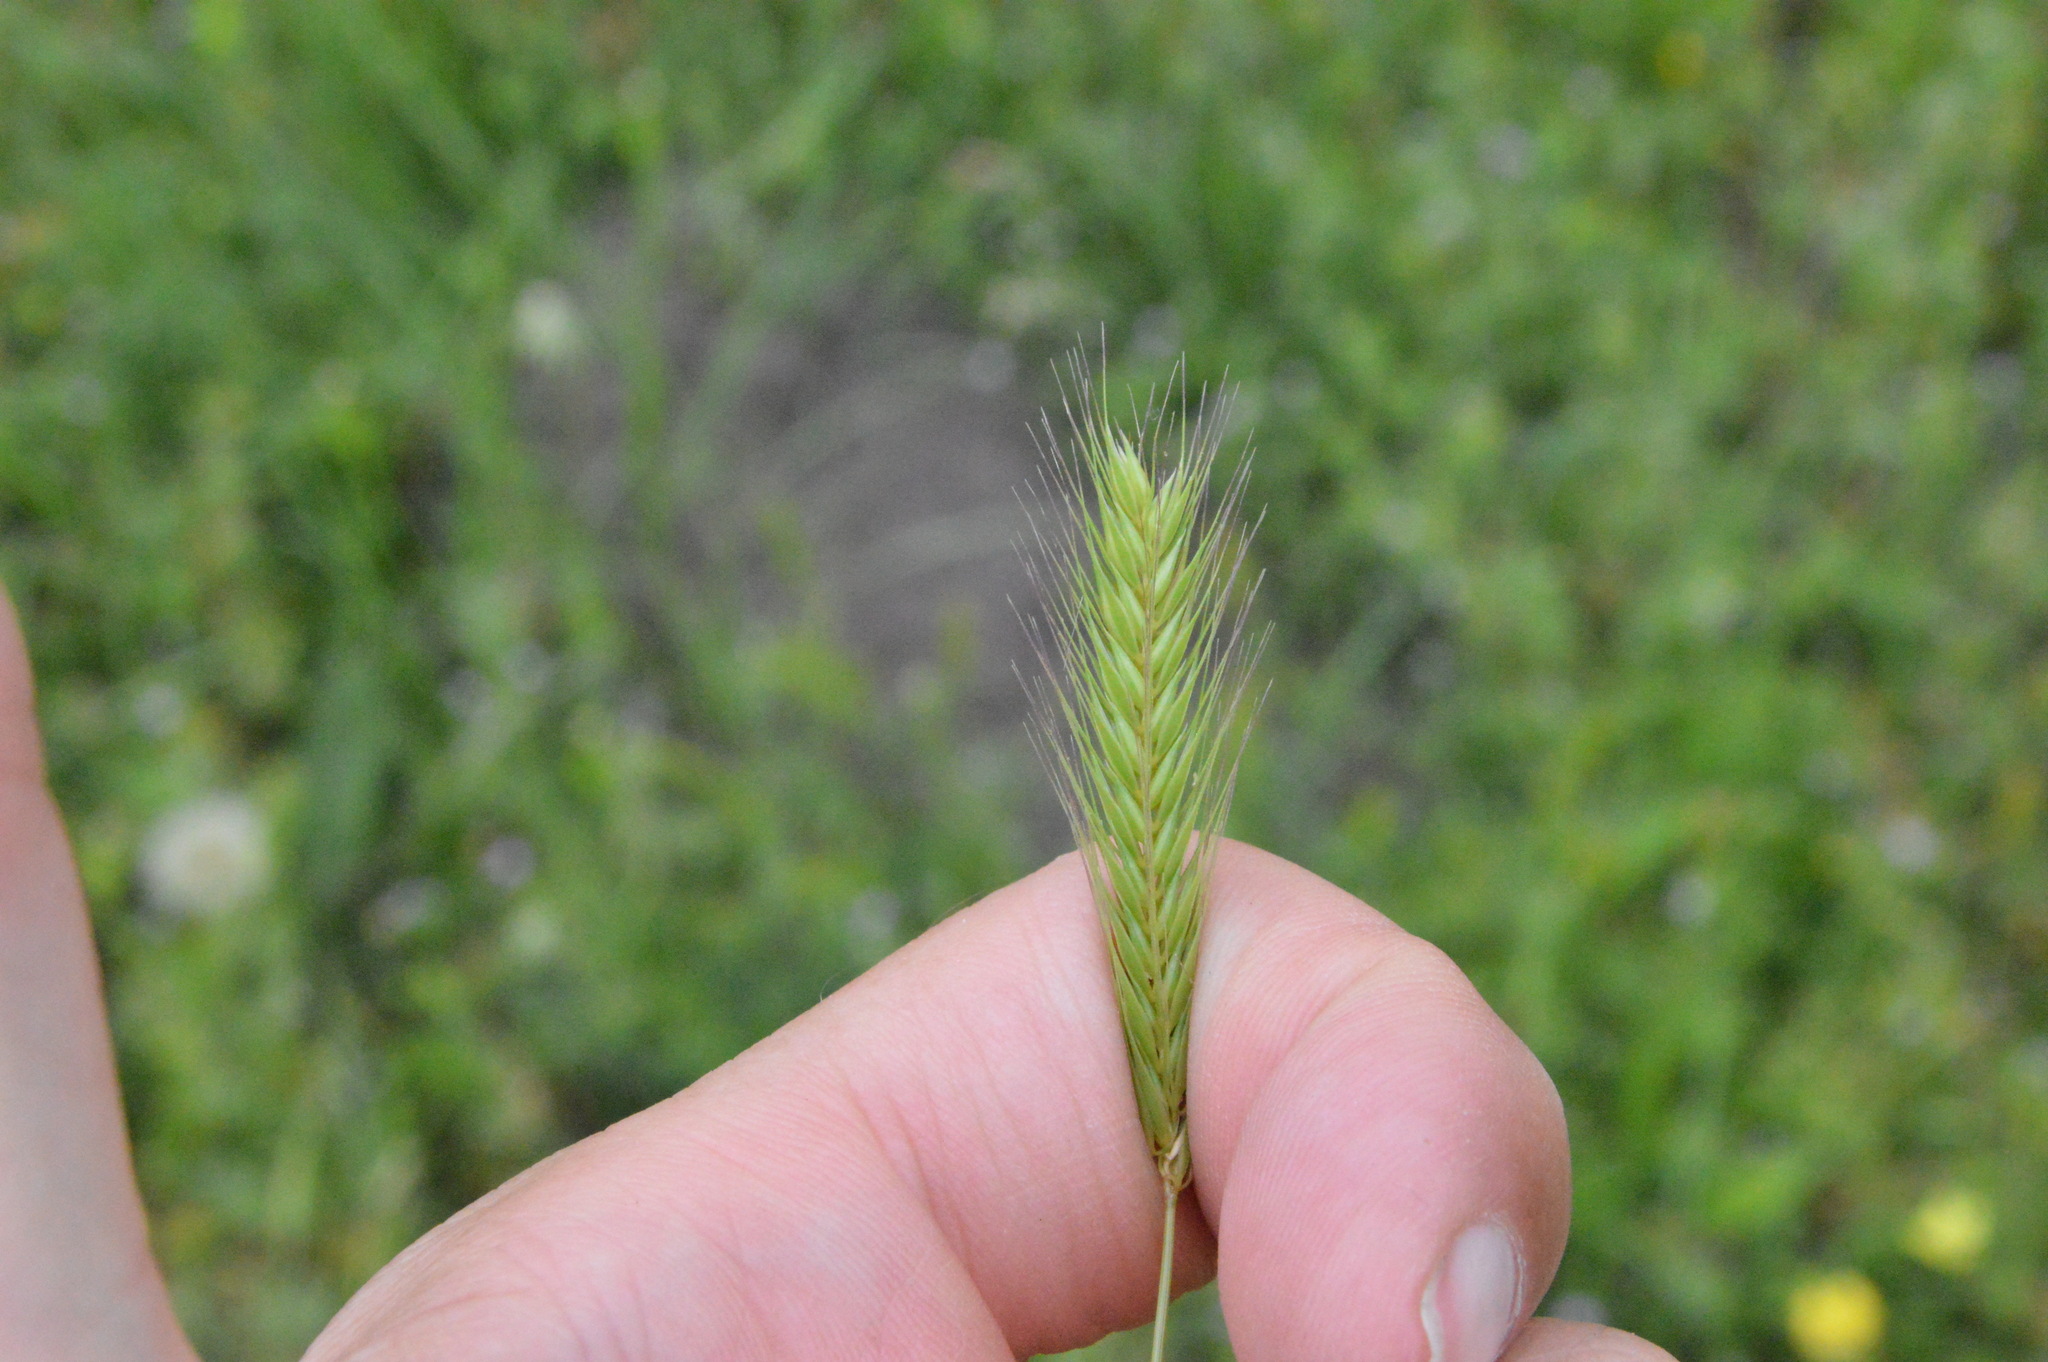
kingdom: Plantae
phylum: Tracheophyta
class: Liliopsida
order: Poales
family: Poaceae
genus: Hordeum
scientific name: Hordeum pusillum
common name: Little barley
